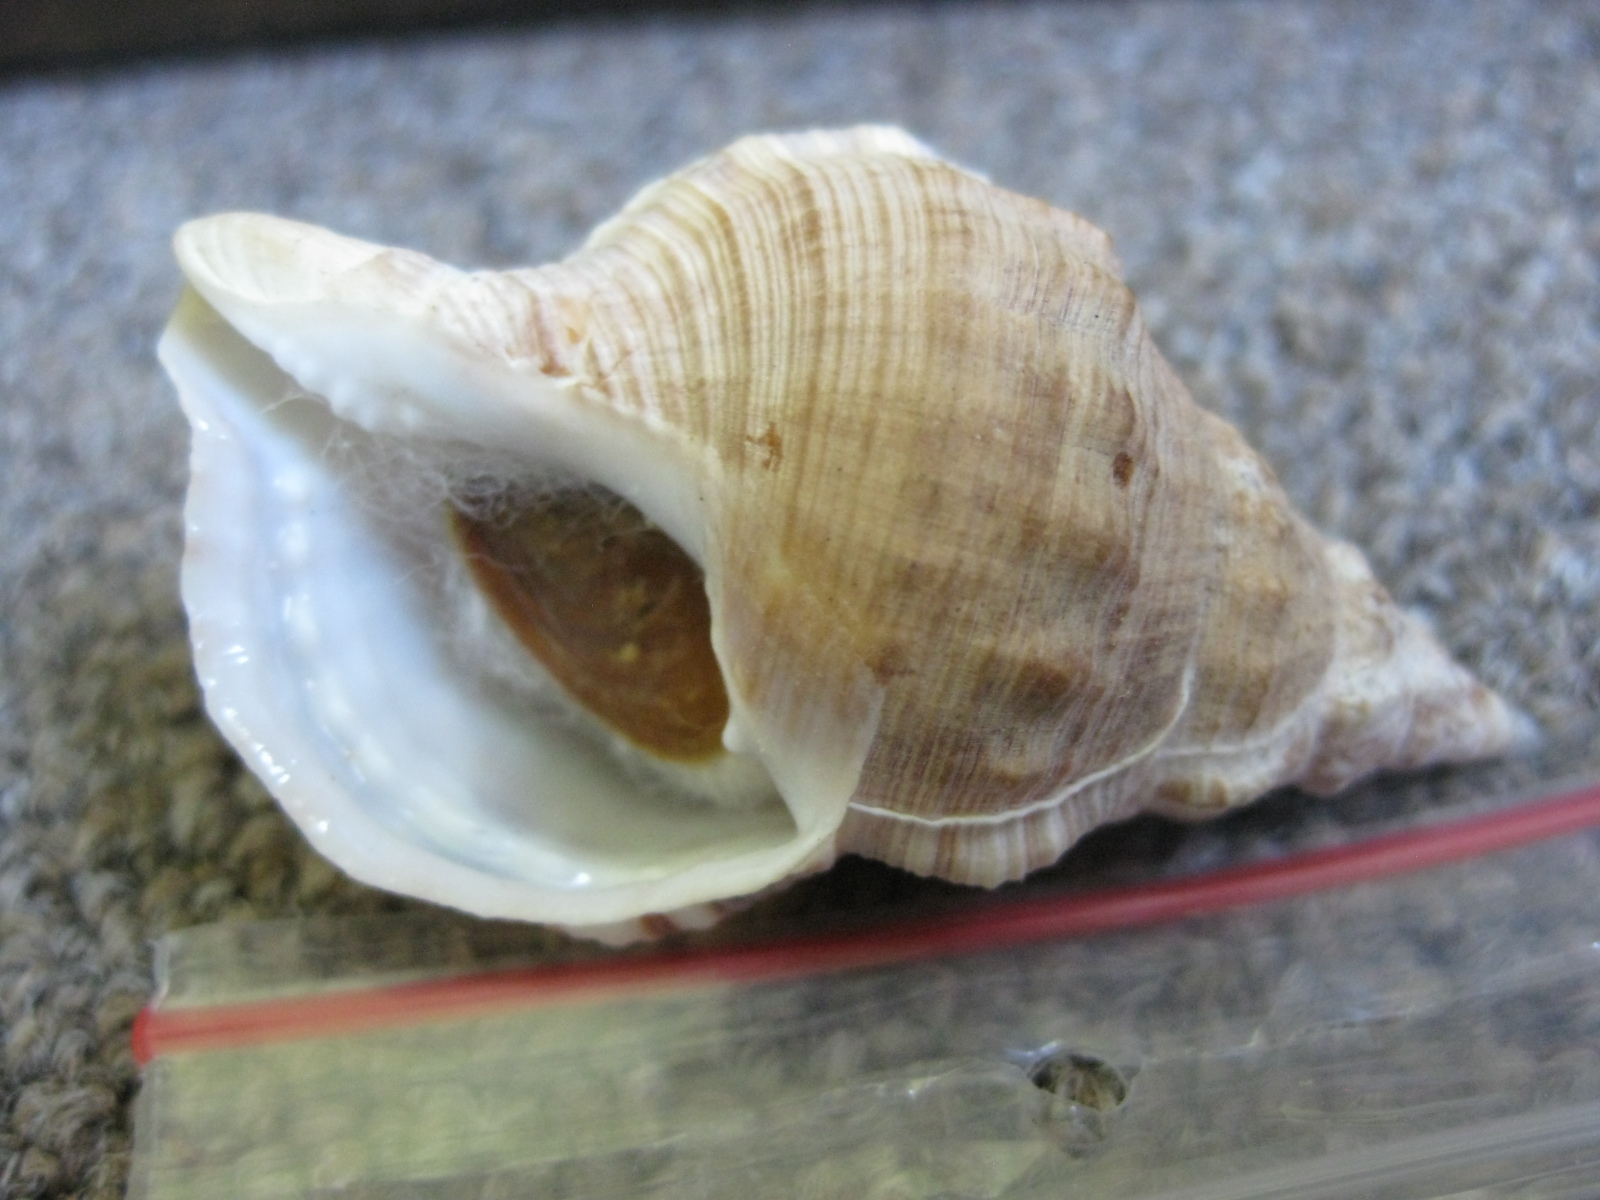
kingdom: Animalia
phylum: Mollusca
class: Gastropoda
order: Littorinimorpha
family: Ranellidae
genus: Ranella
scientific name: Ranella australasia
